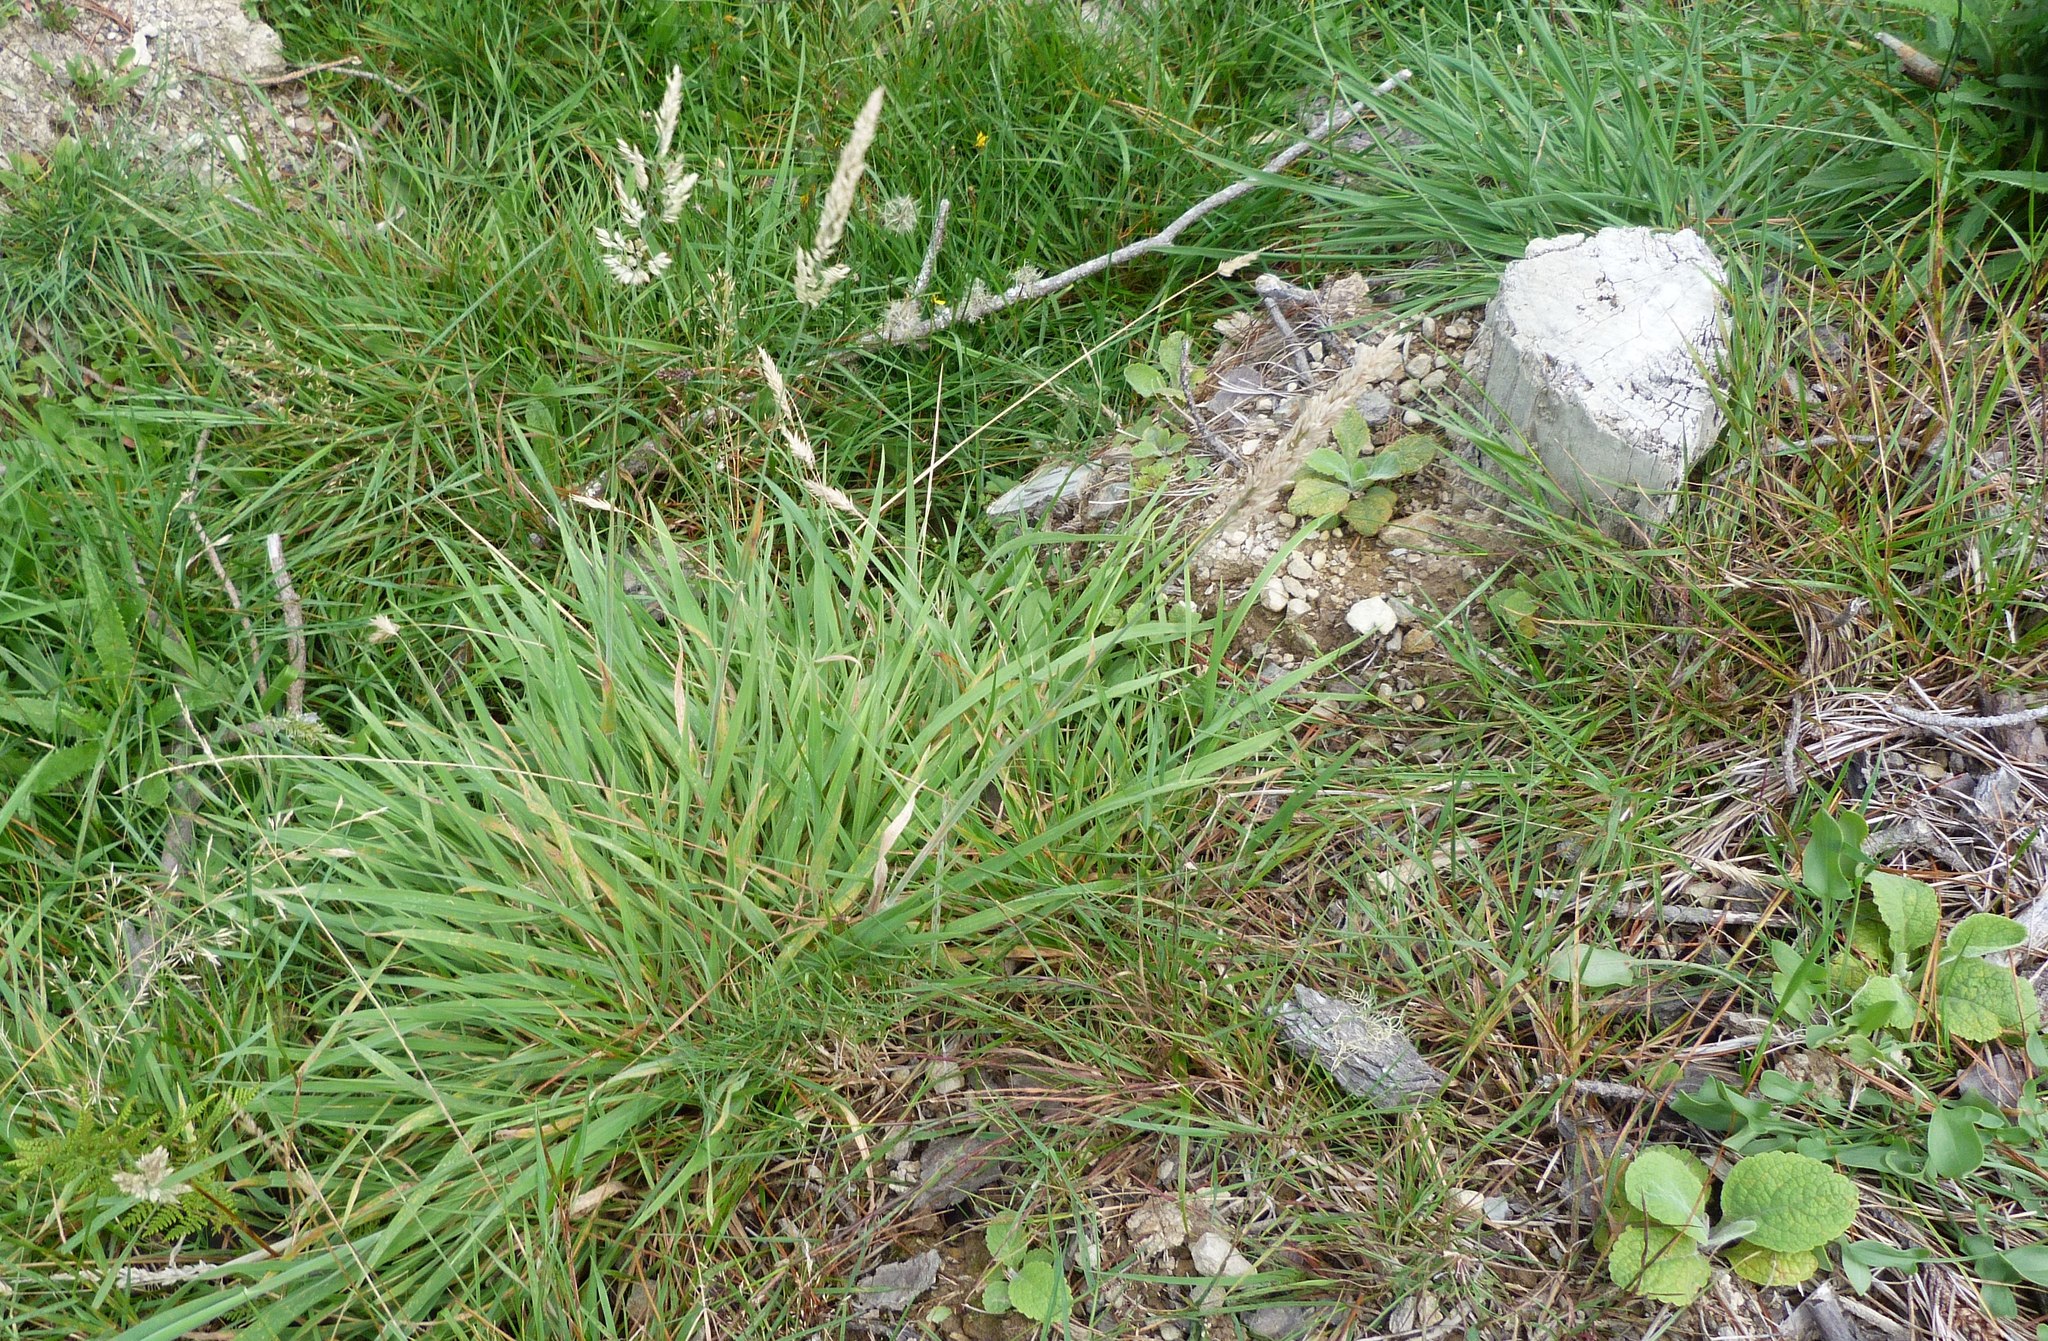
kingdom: Plantae
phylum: Tracheophyta
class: Liliopsida
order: Poales
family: Poaceae
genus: Holcus
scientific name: Holcus lanatus
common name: Yorkshire-fog
